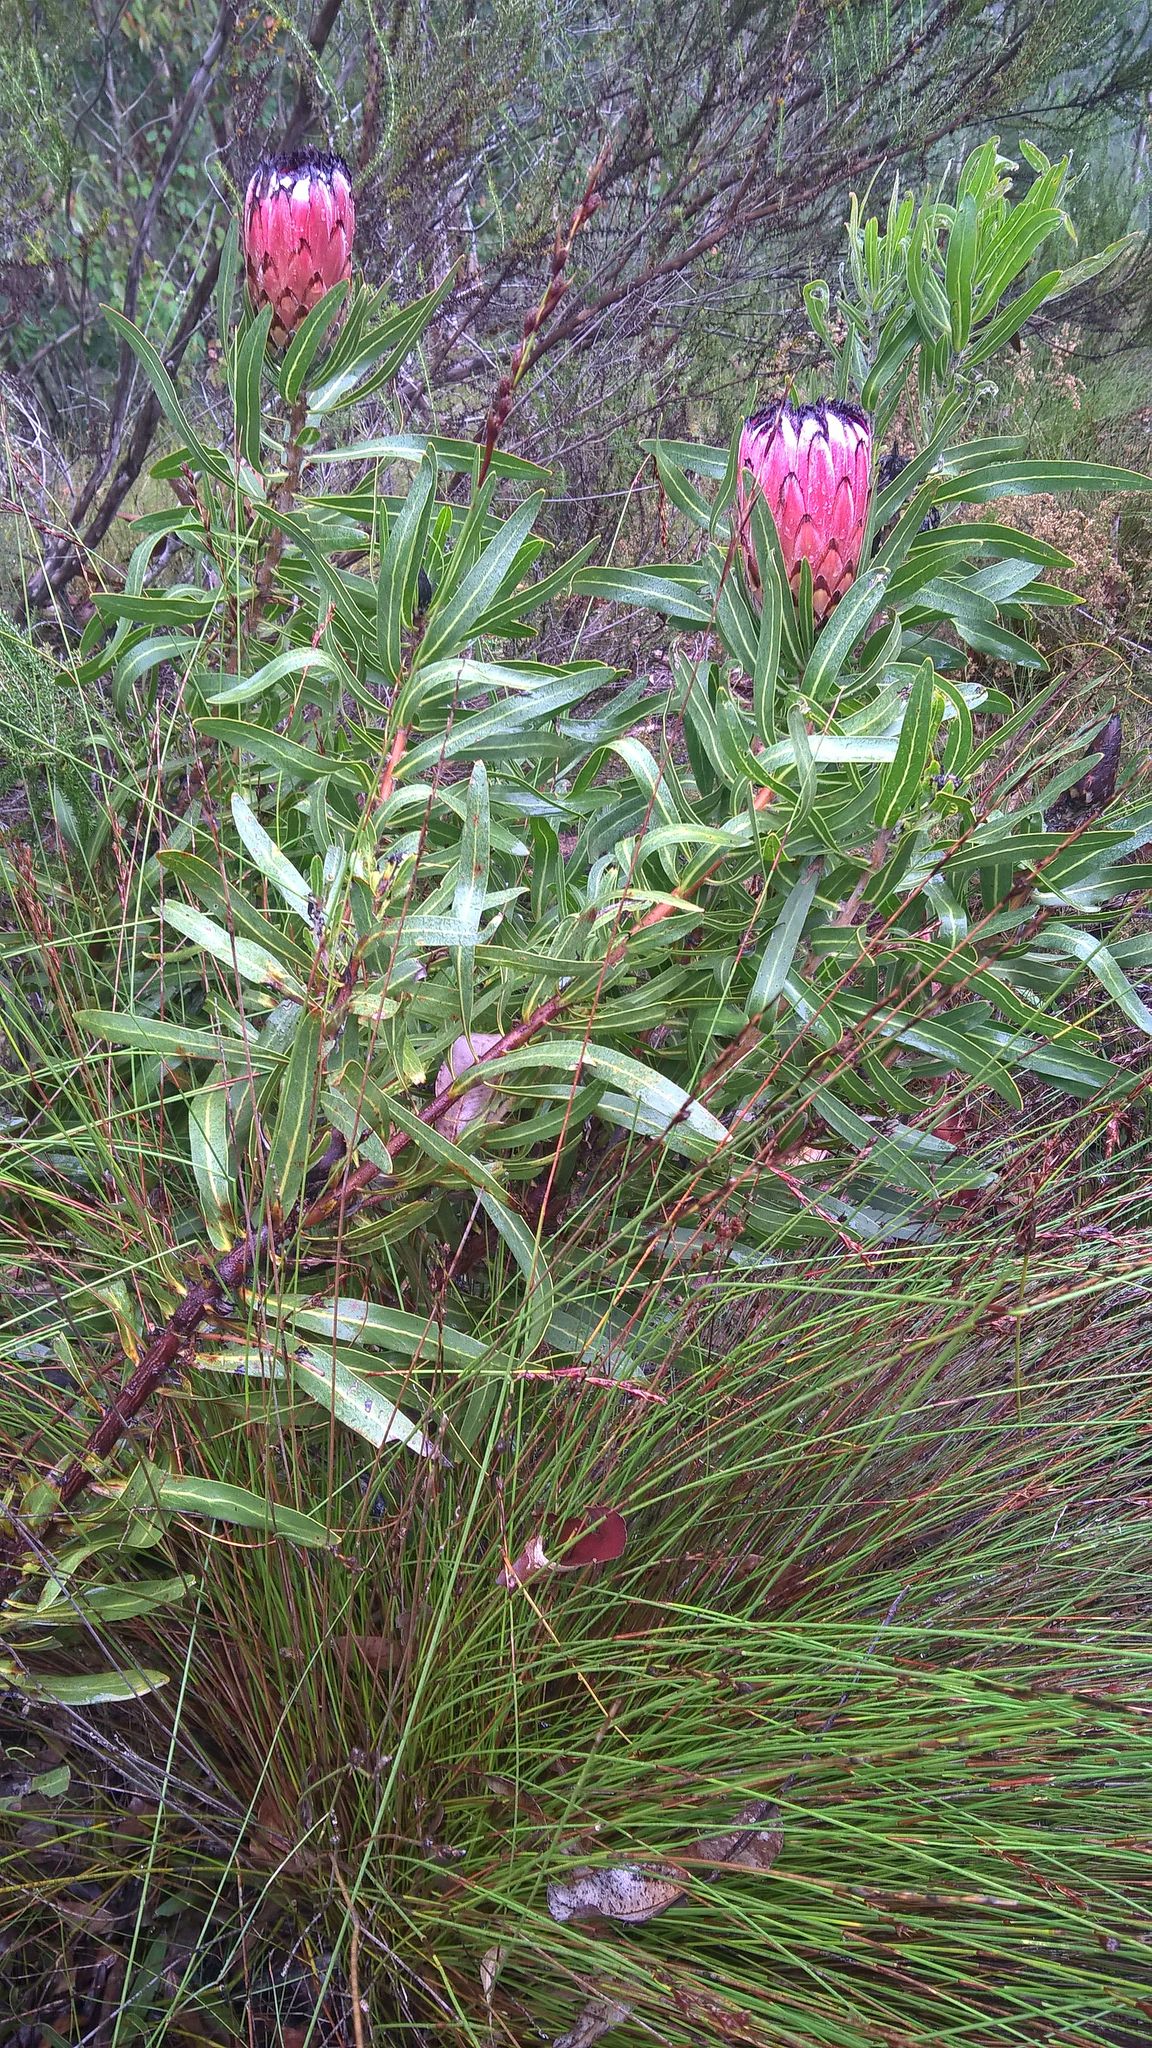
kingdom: Plantae
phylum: Tracheophyta
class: Magnoliopsida
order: Proteales
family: Proteaceae
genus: Protea
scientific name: Protea neriifolia
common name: Blue sugarbush
